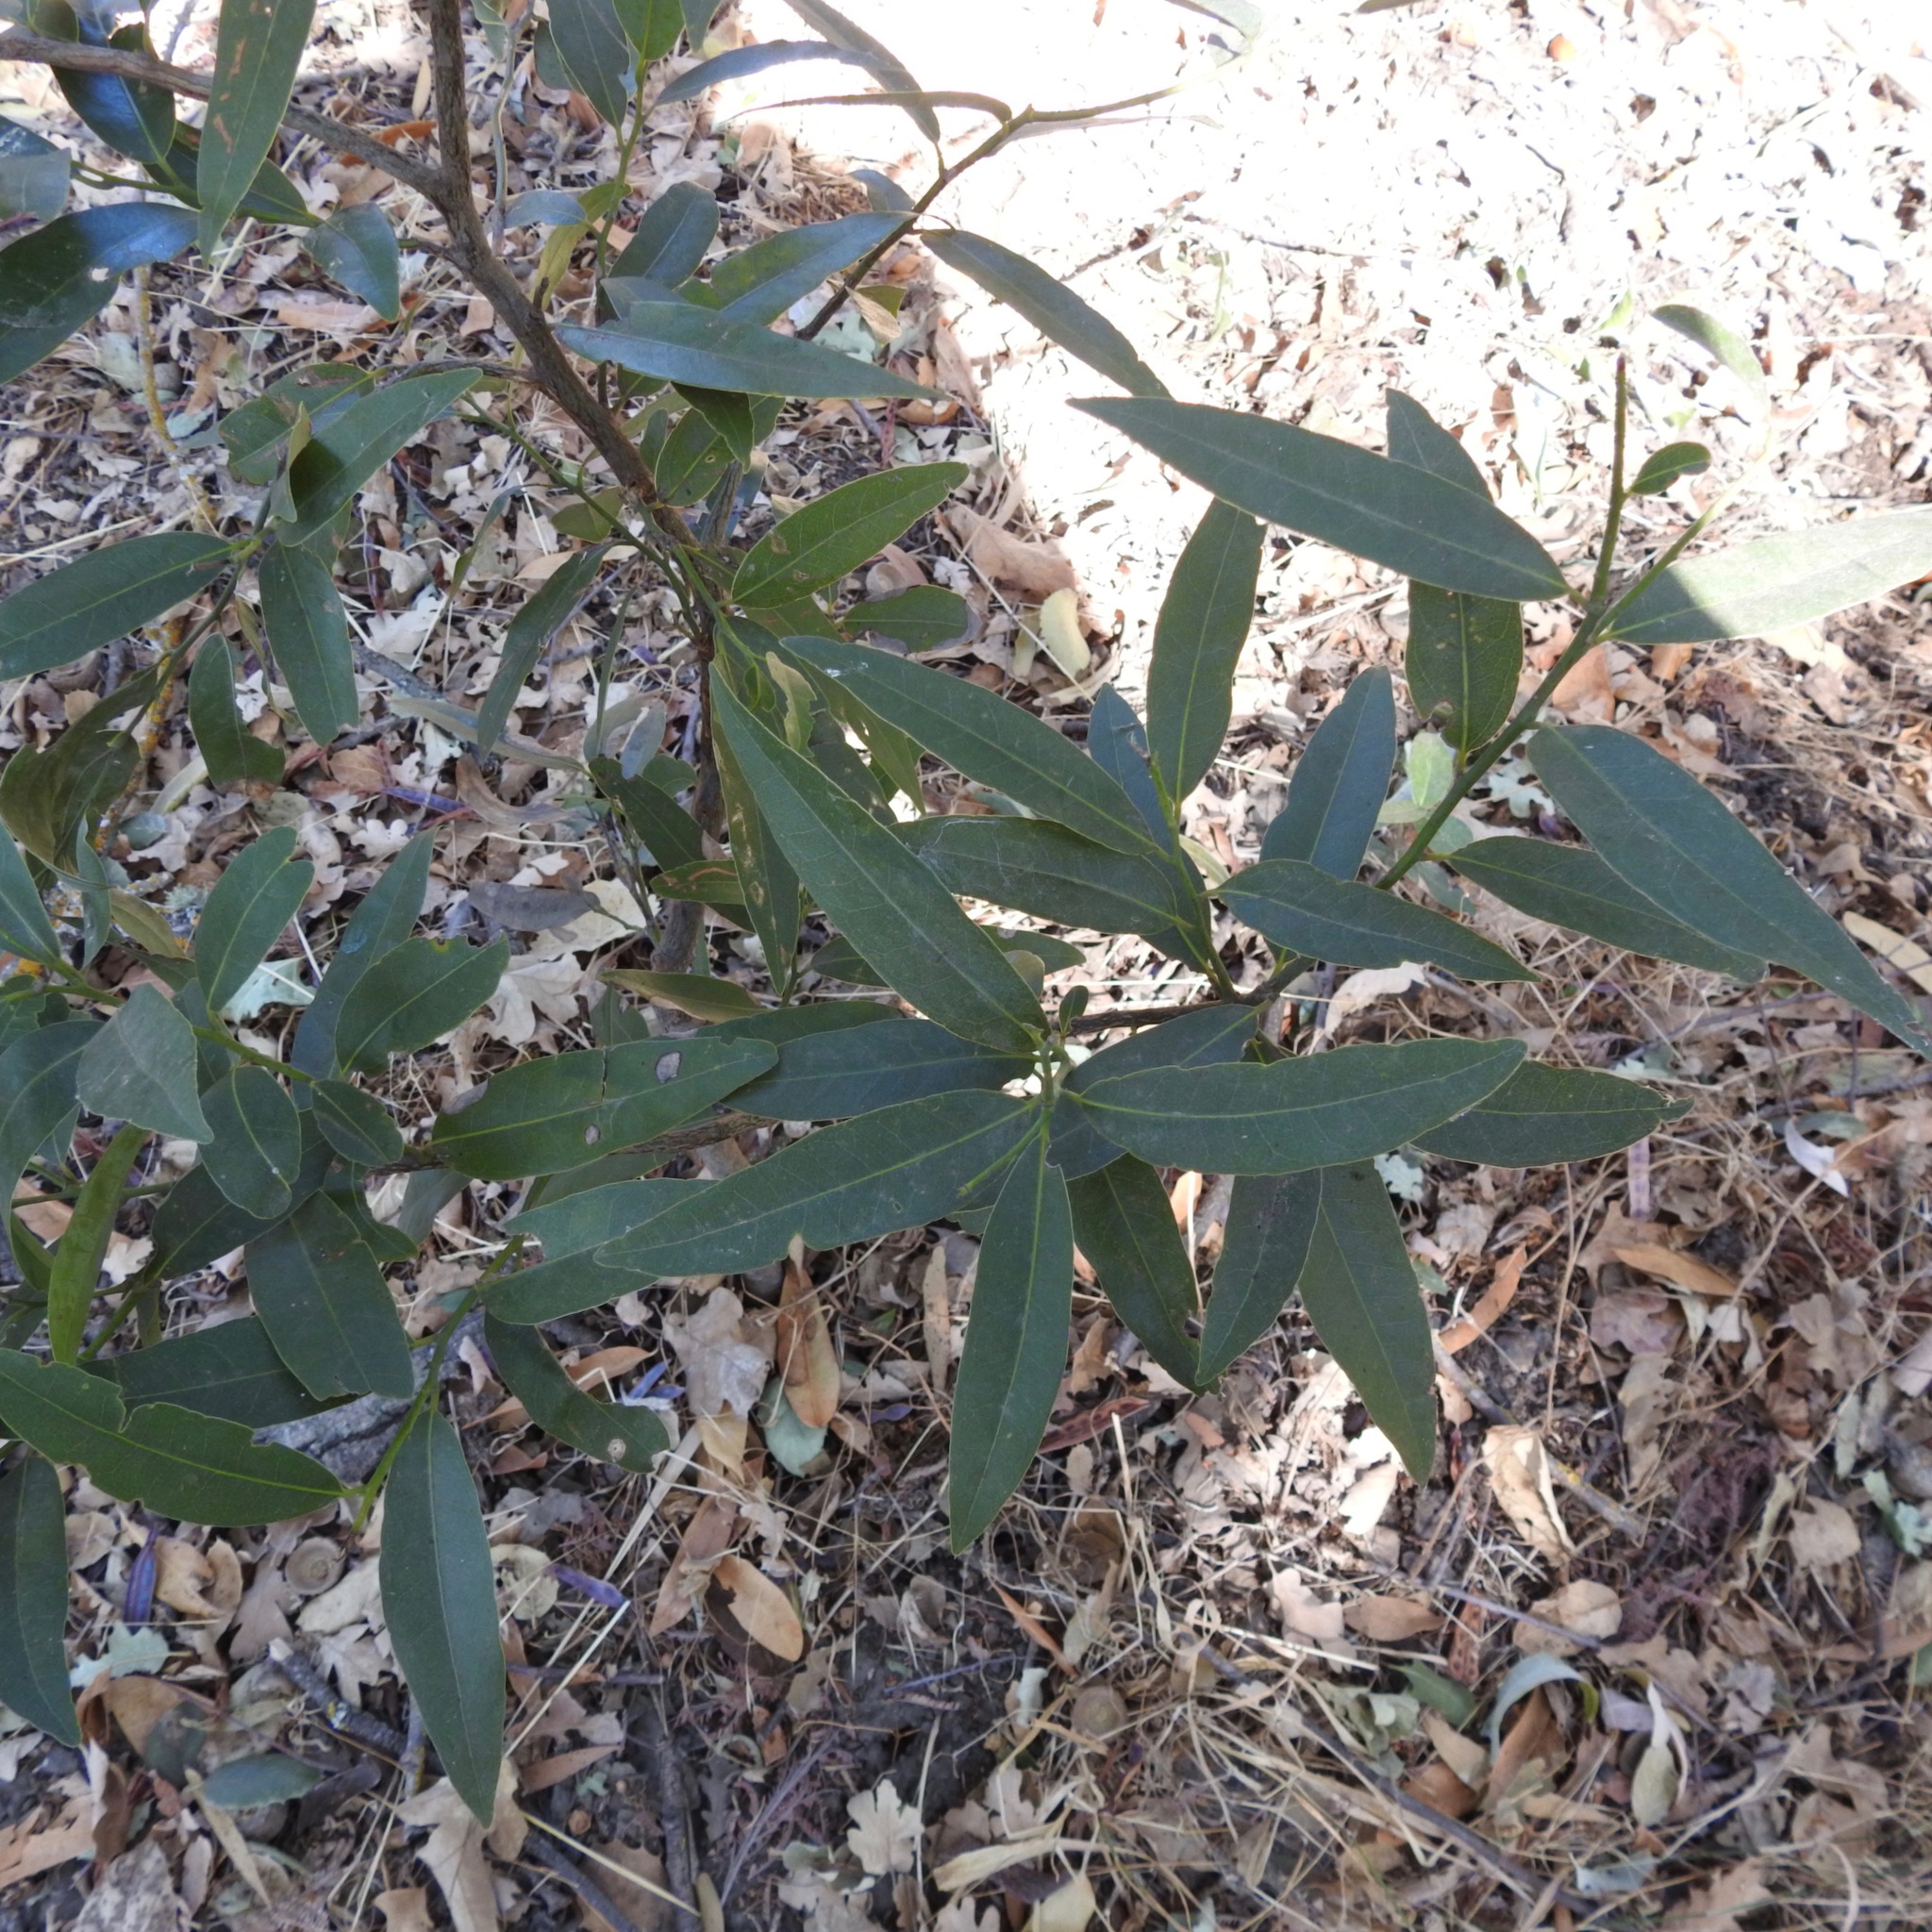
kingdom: Plantae
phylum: Tracheophyta
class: Magnoliopsida
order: Laurales
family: Lauraceae
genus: Umbellularia
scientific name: Umbellularia californica
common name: California bay
